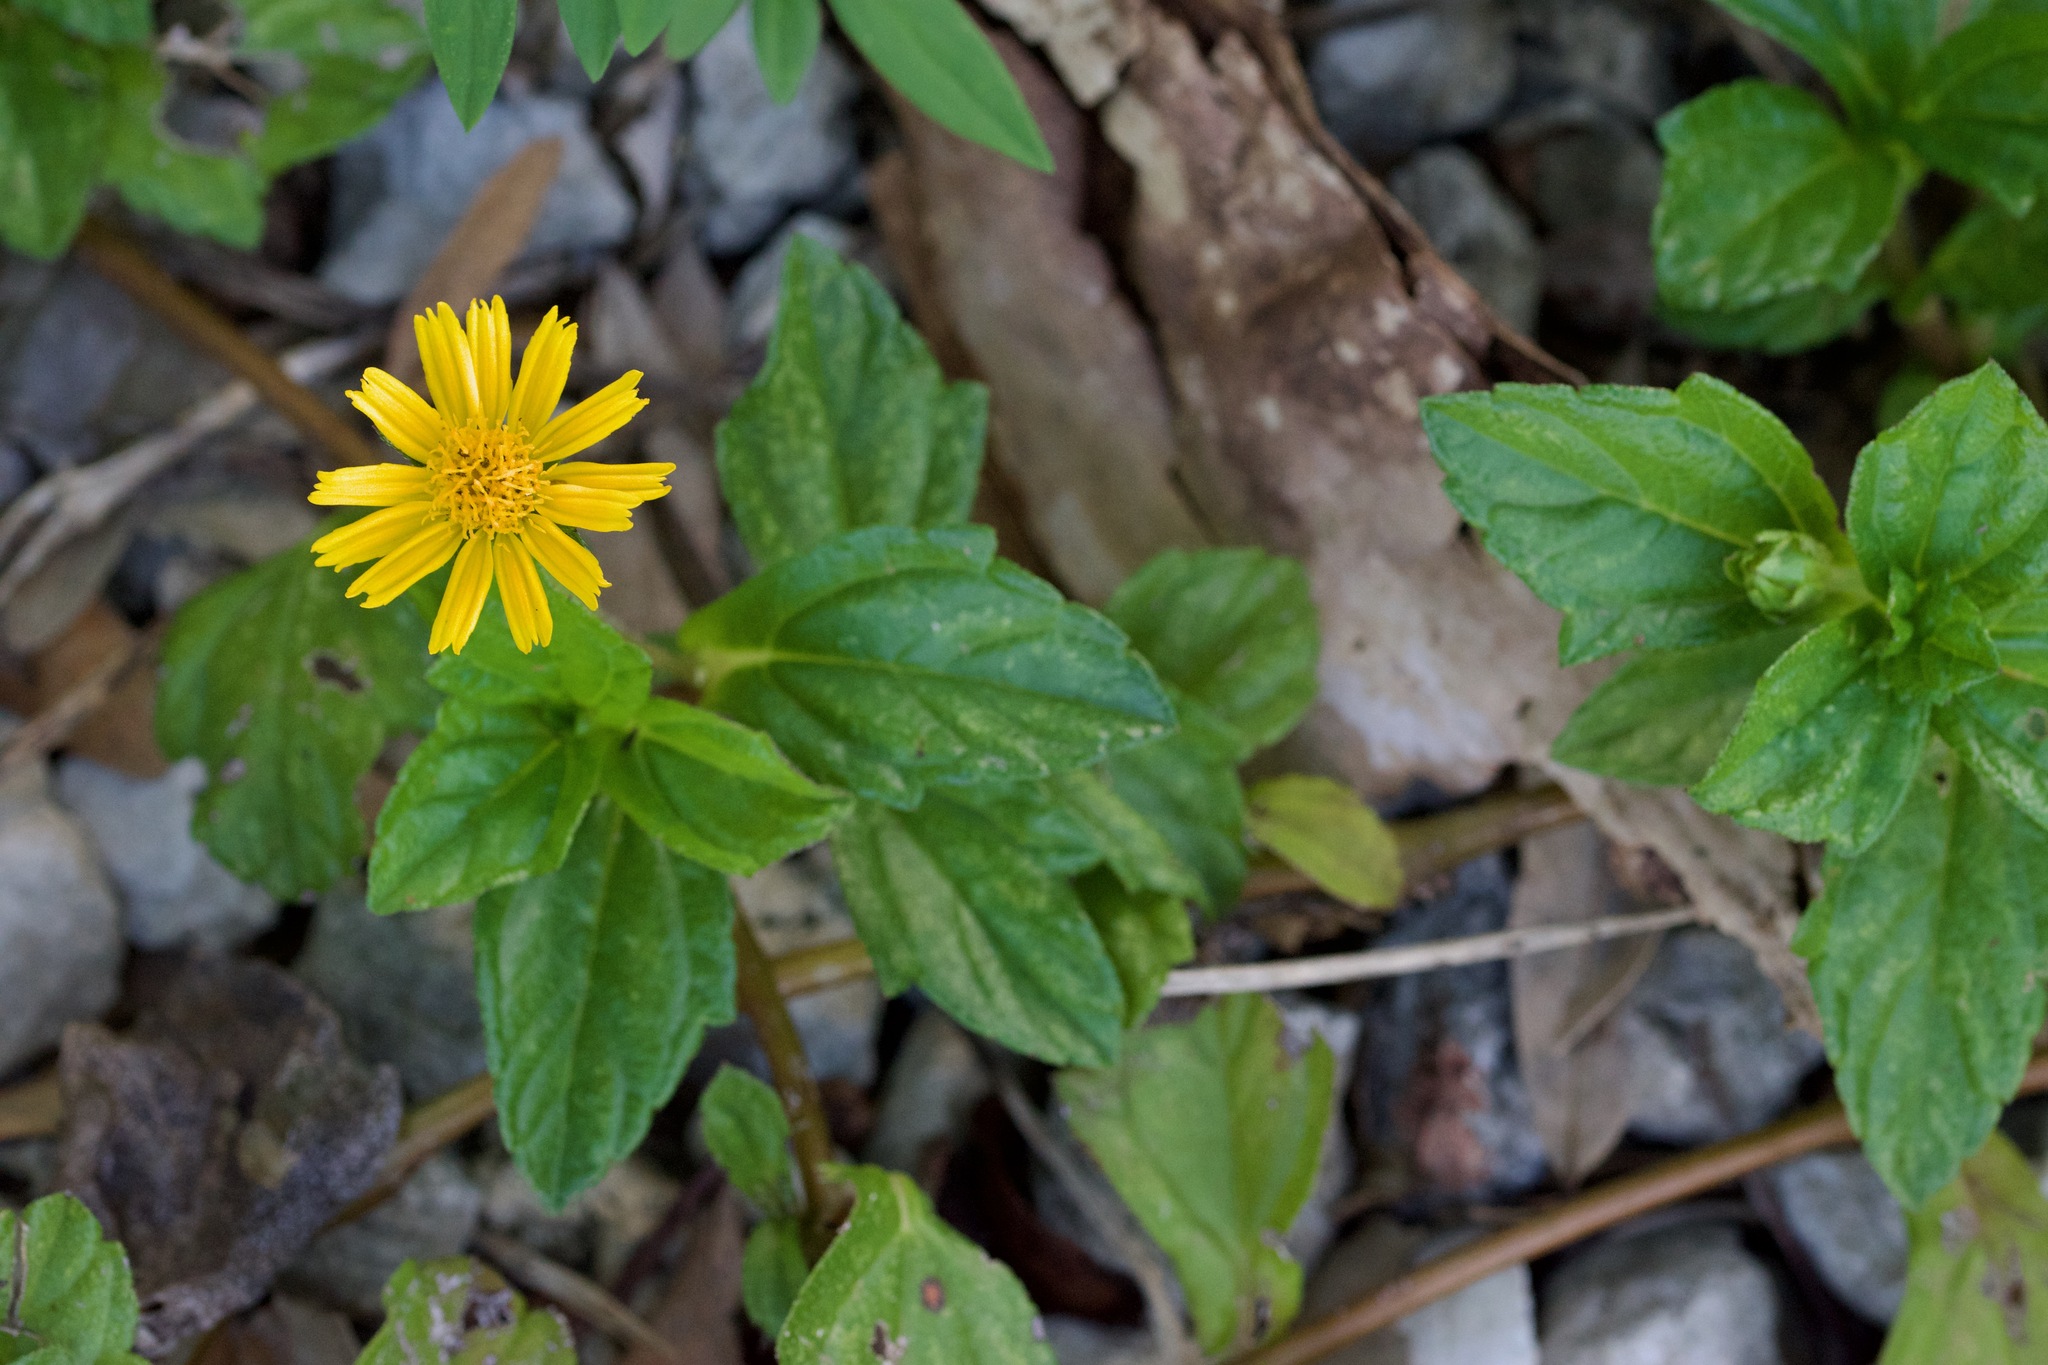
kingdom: Plantae
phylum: Tracheophyta
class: Magnoliopsida
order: Asterales
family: Asteraceae
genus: Sphagneticola
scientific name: Sphagneticola trilobata
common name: Bay biscayne creeping-oxeye
